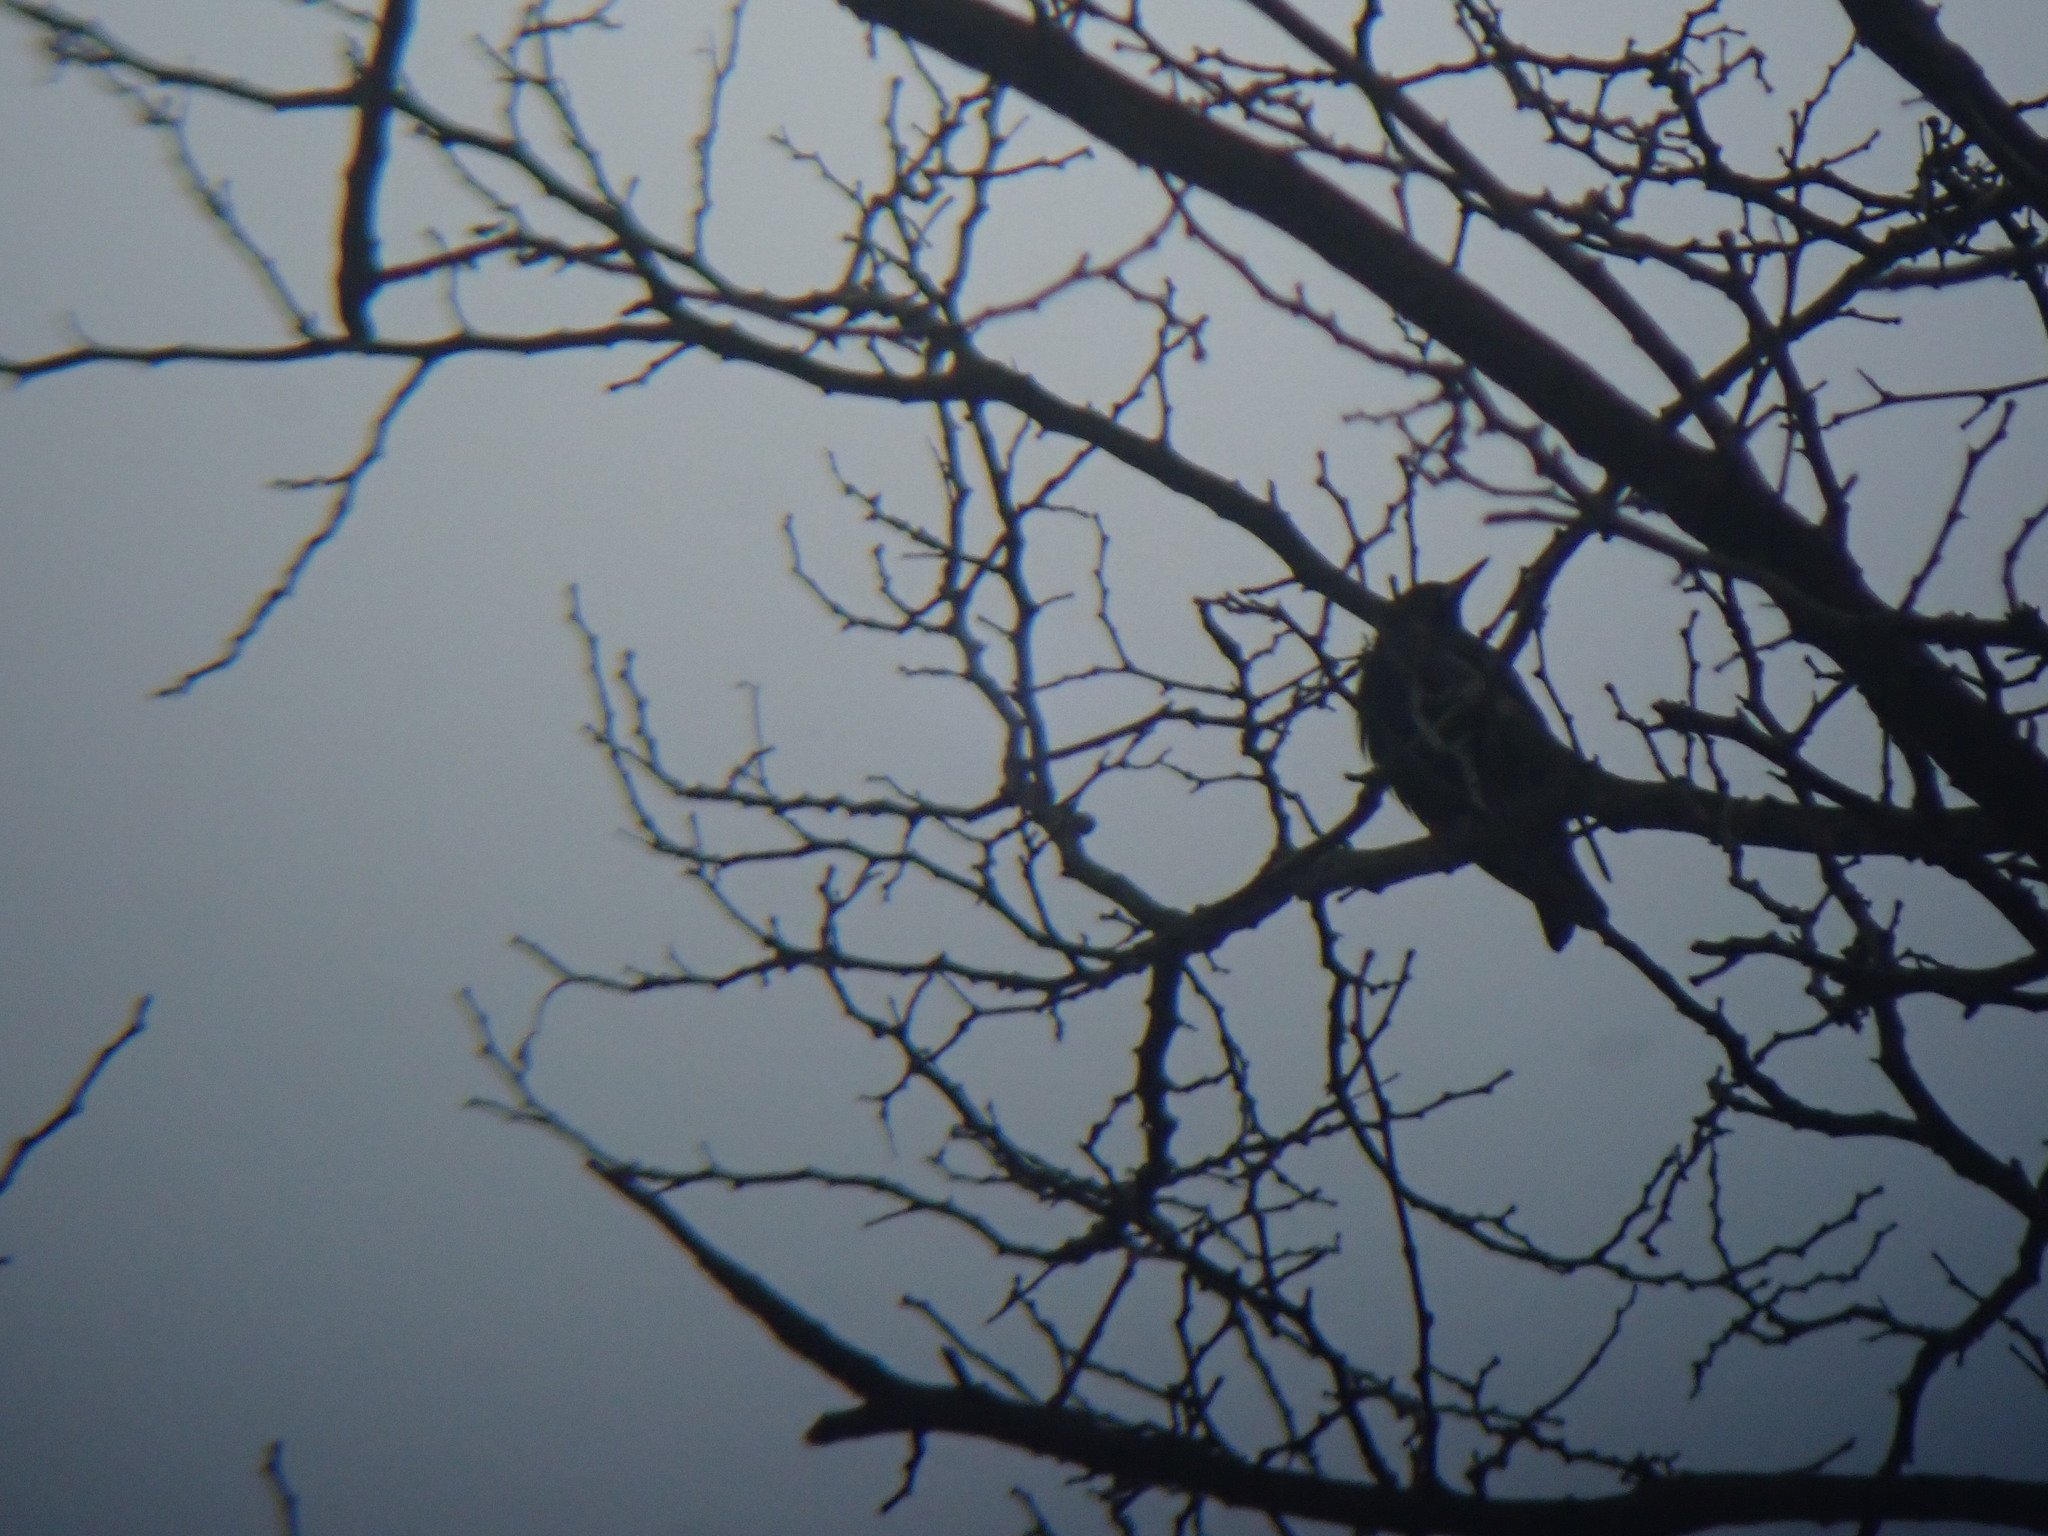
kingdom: Animalia
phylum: Chordata
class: Aves
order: Passeriformes
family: Sturnidae
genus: Sturnus
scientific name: Sturnus vulgaris
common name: Common starling
